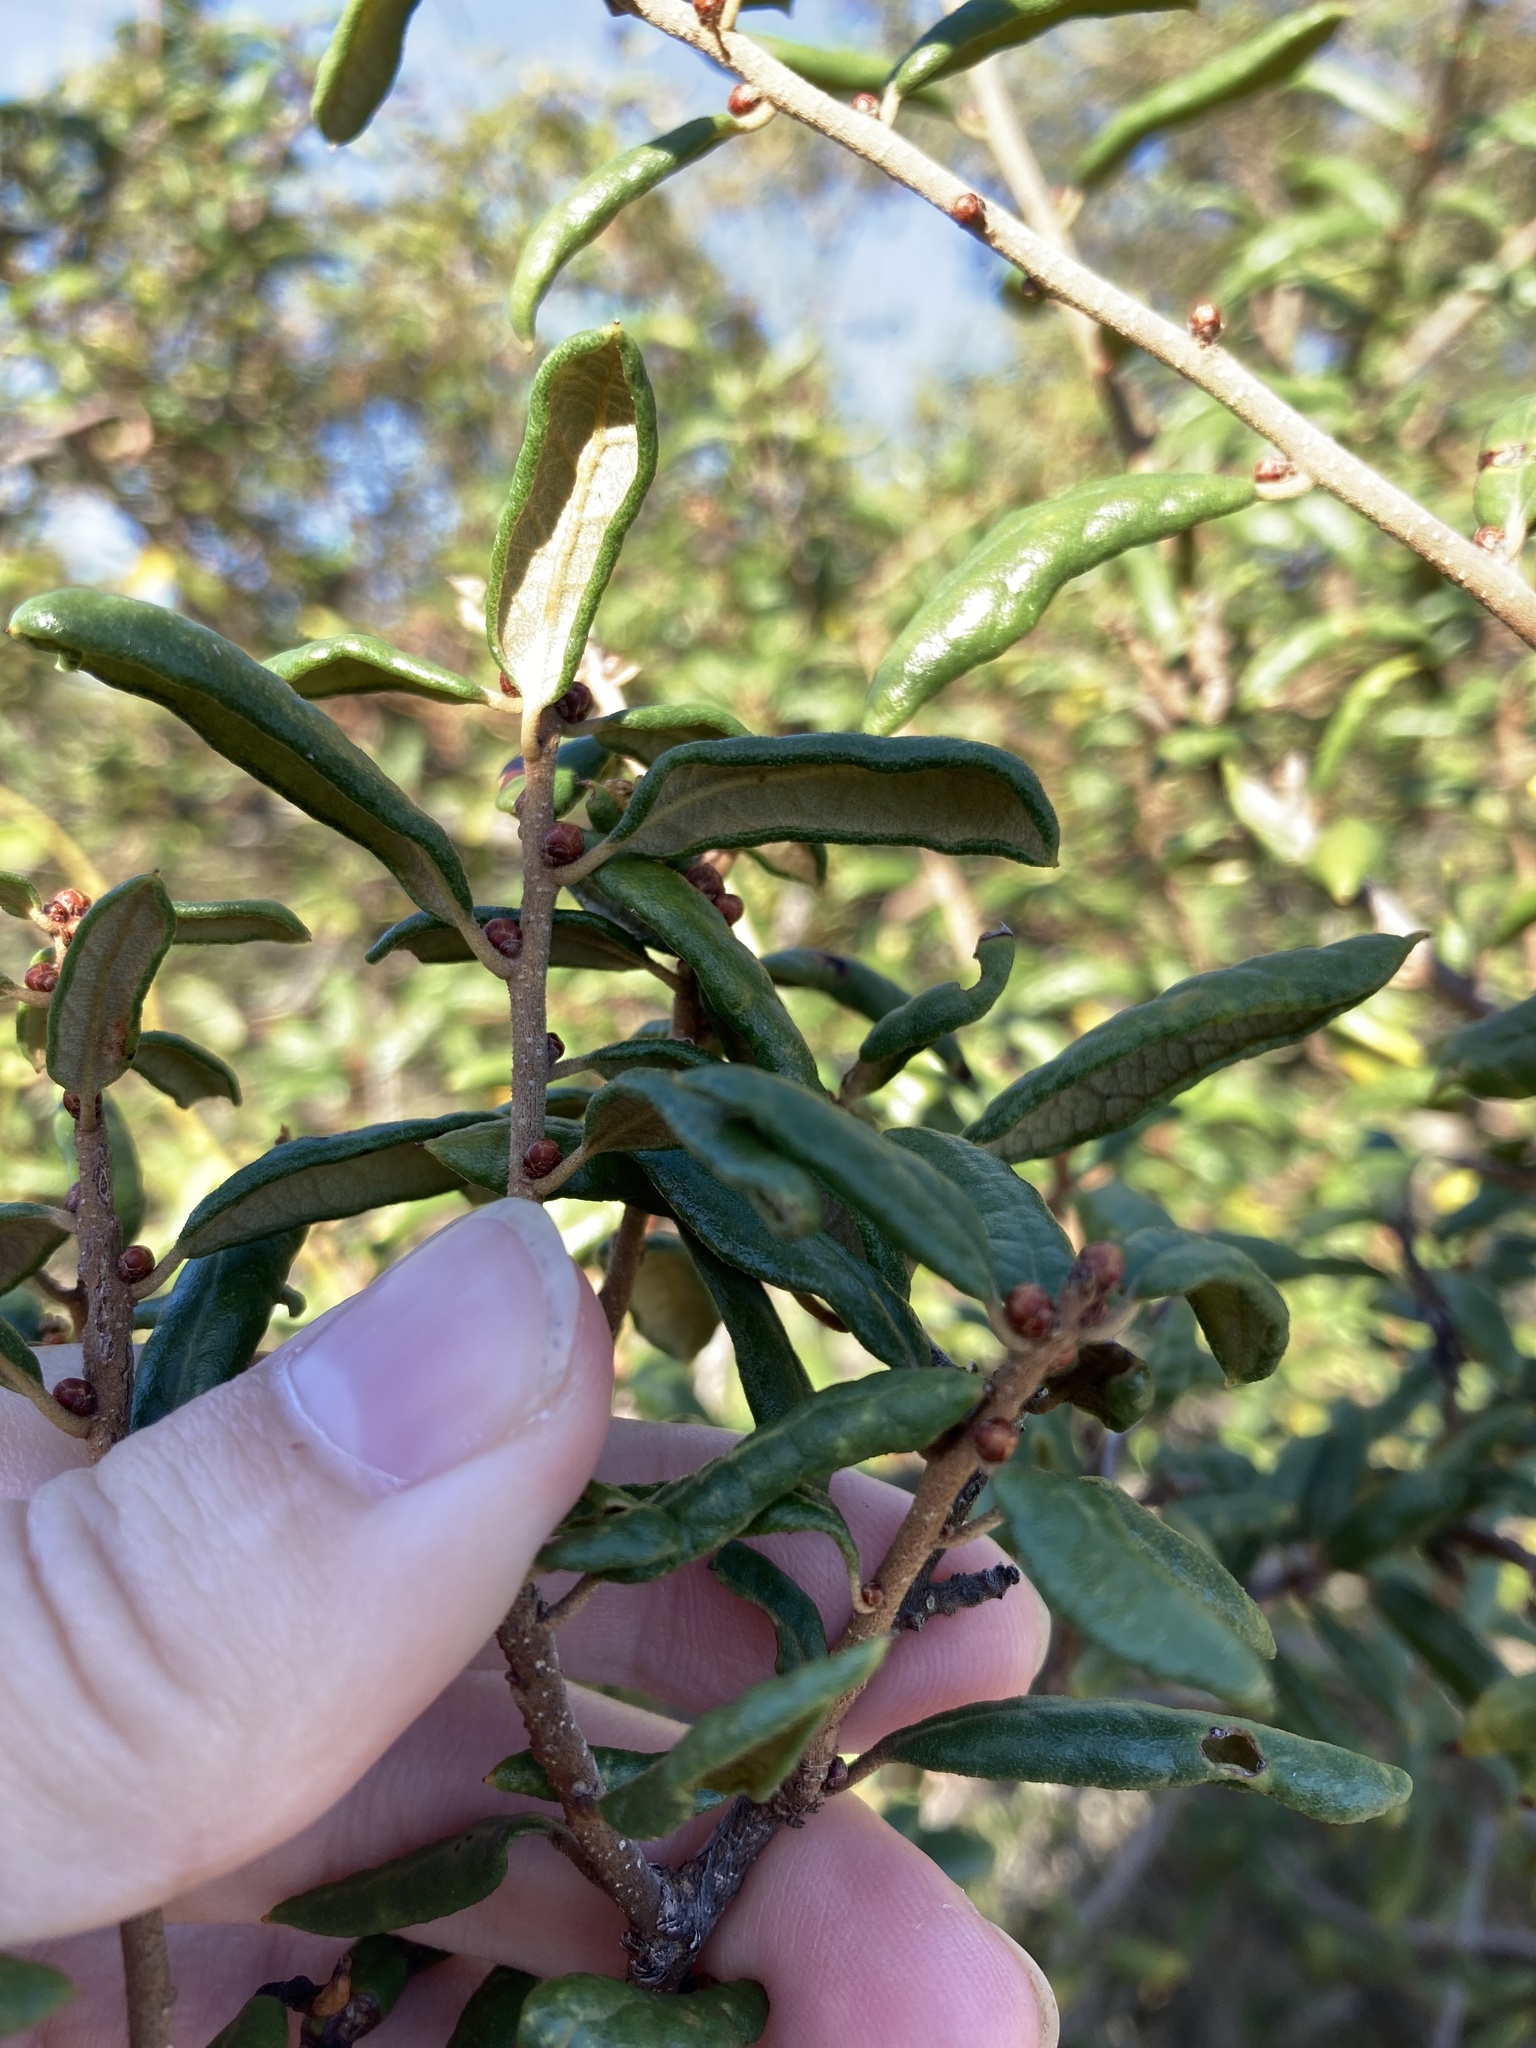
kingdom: Plantae
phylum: Tracheophyta
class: Magnoliopsida
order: Fagales
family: Fagaceae
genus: Quercus
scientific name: Quercus geminata
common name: Sand live oak
